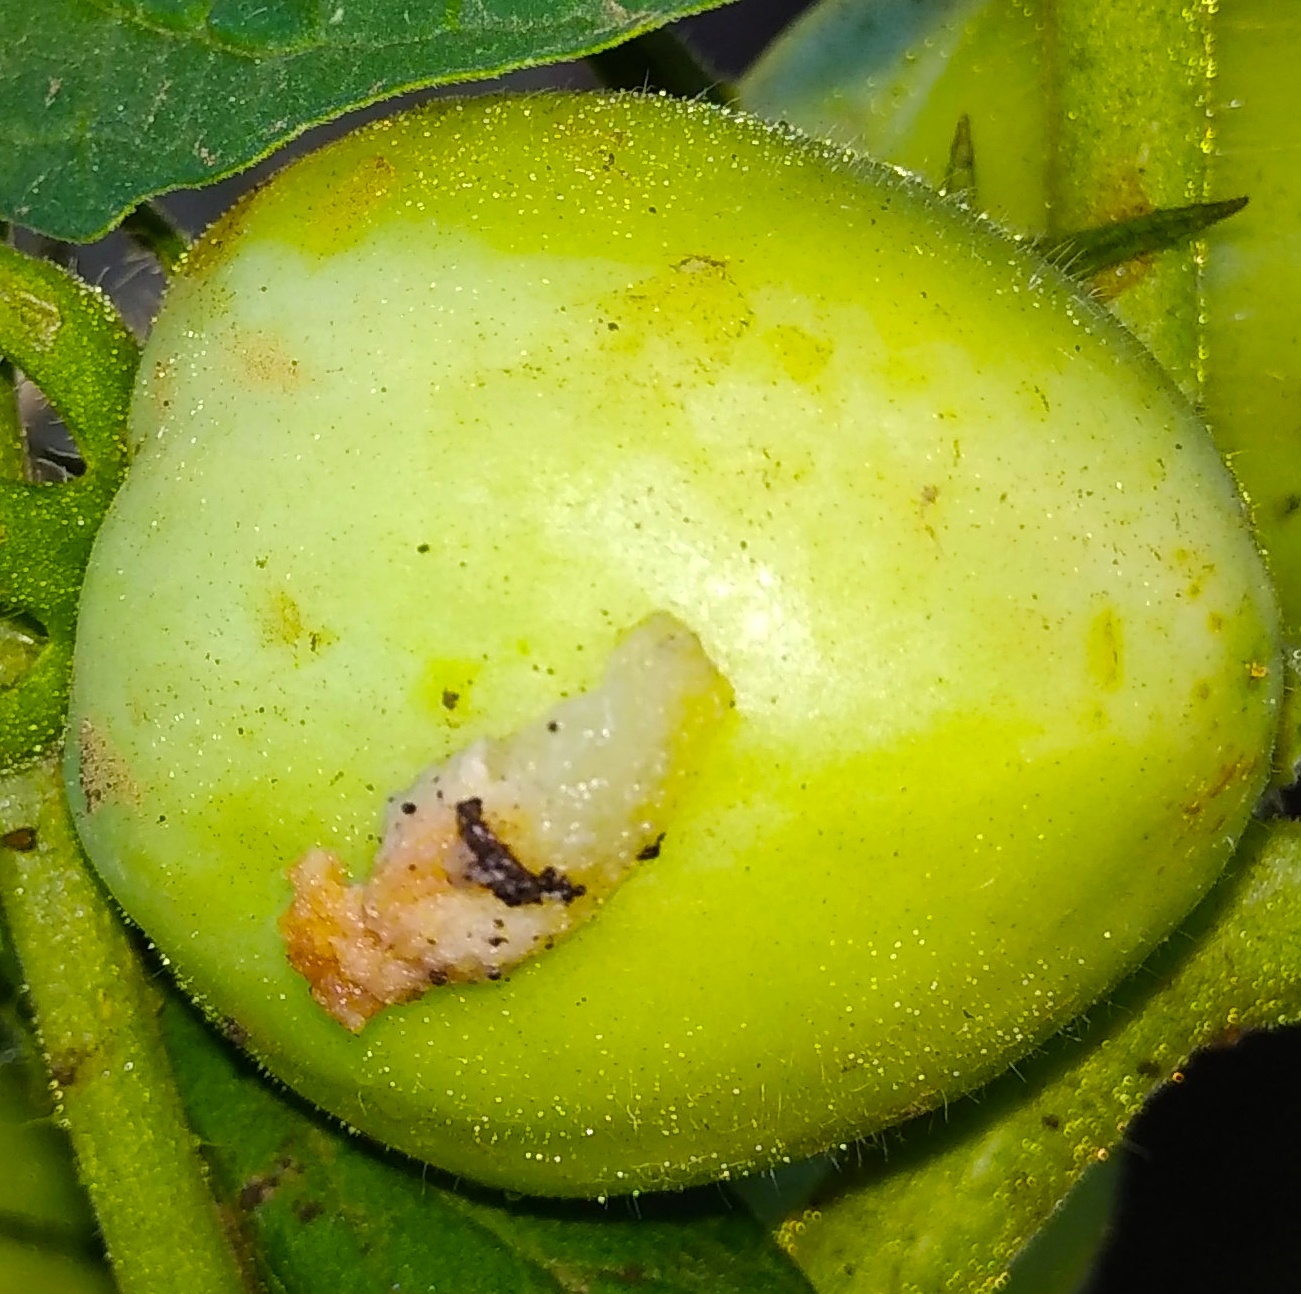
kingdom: Plantae
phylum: Tracheophyta
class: Magnoliopsida
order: Solanales
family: Solanaceae
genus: Solanum
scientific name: Solanum lycopersicum
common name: Garden tomato
